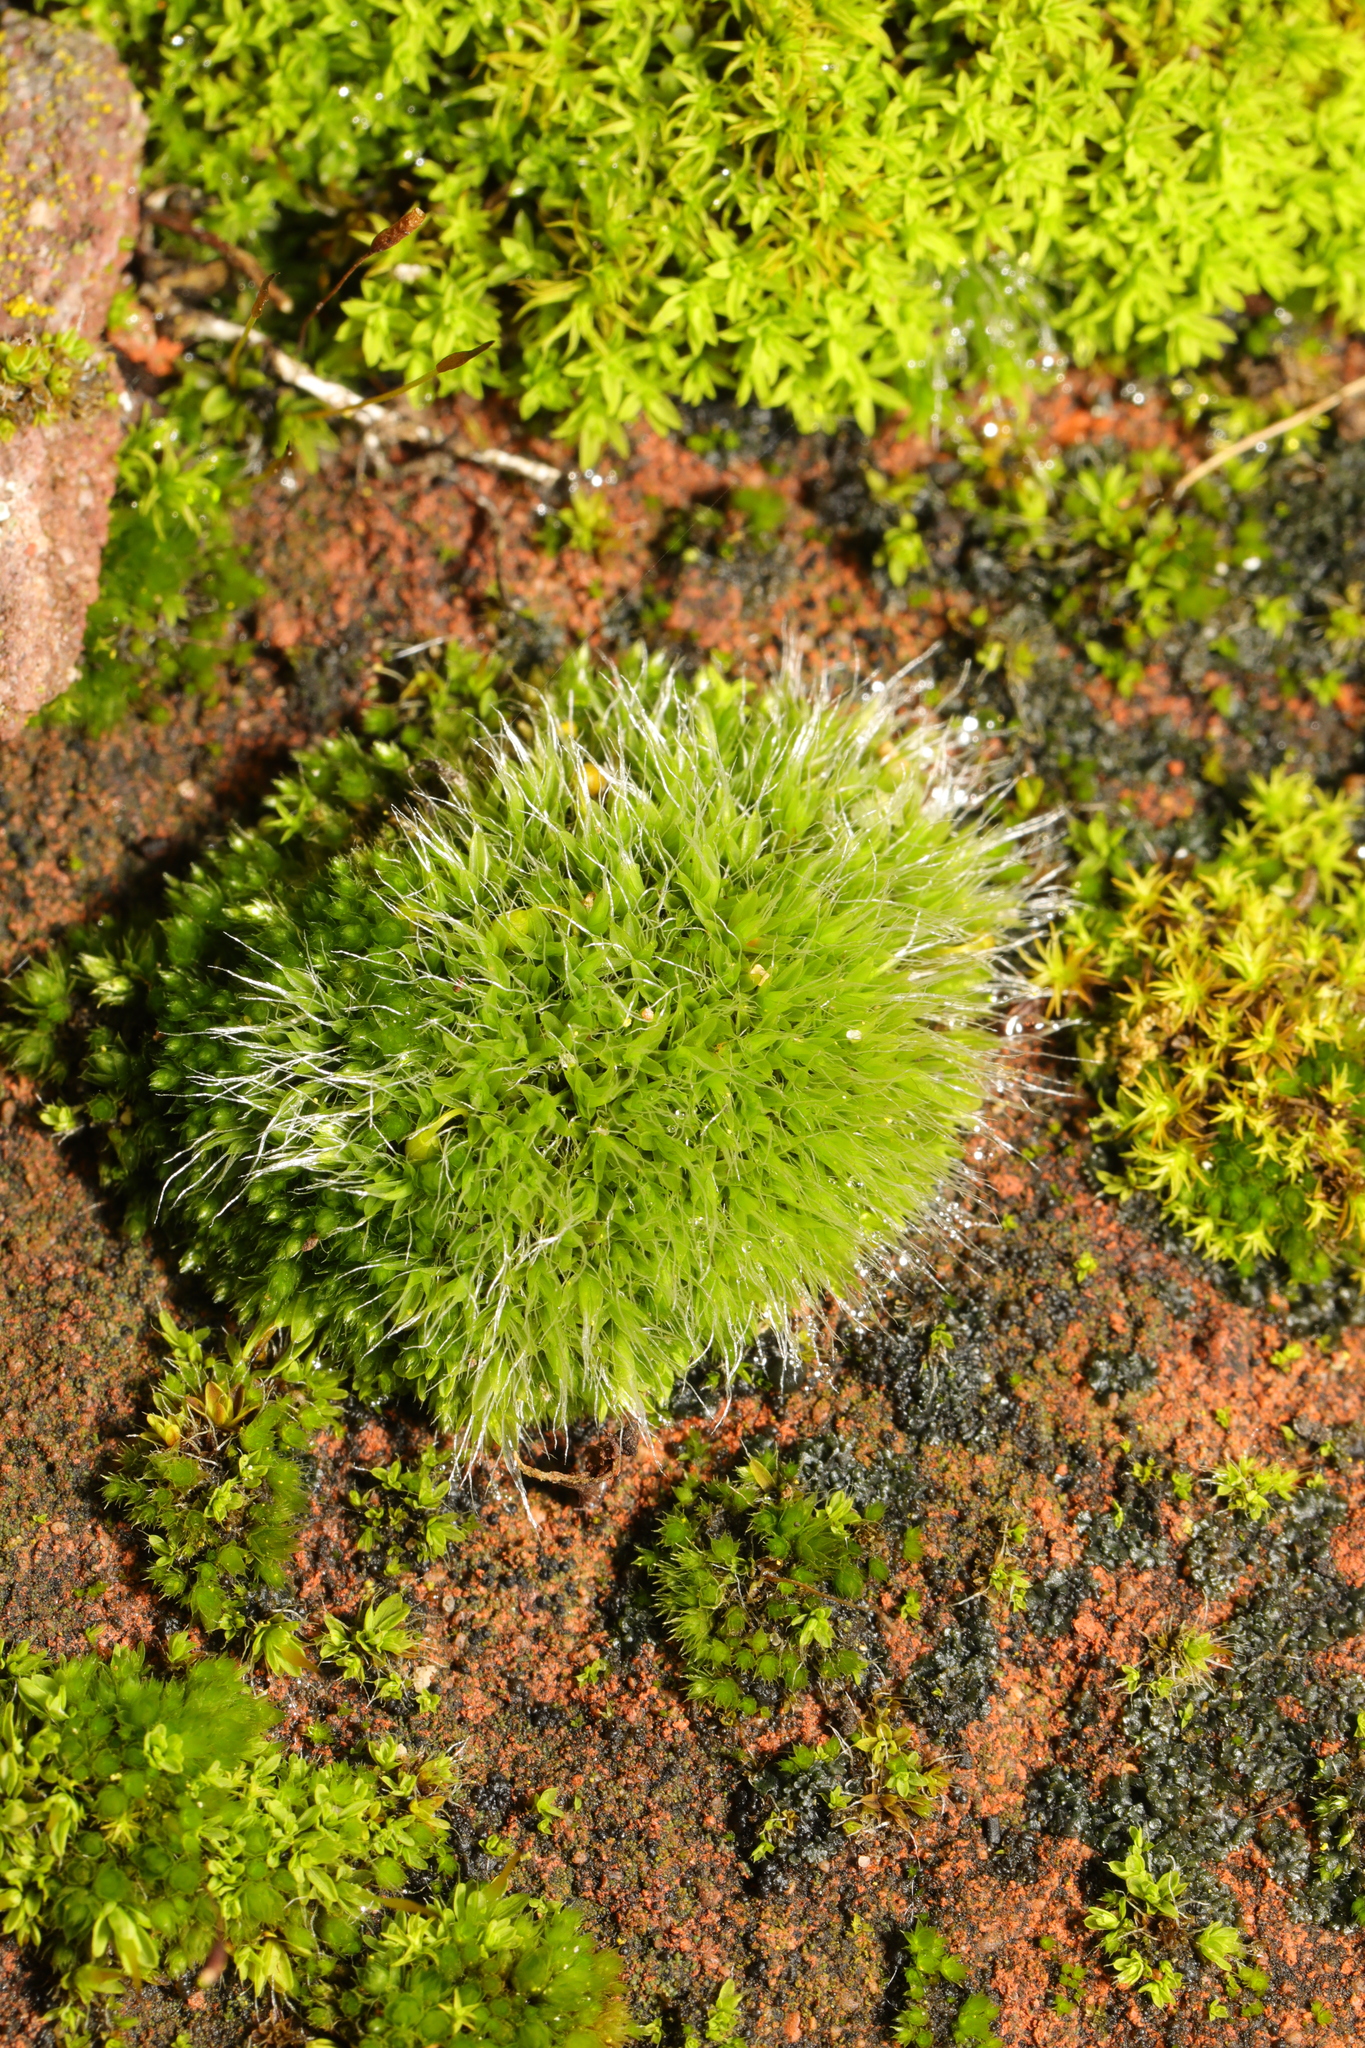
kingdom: Plantae
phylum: Bryophyta
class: Bryopsida
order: Grimmiales
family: Grimmiaceae
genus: Grimmia
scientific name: Grimmia pulvinata
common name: Grey-cushioned grimmia
